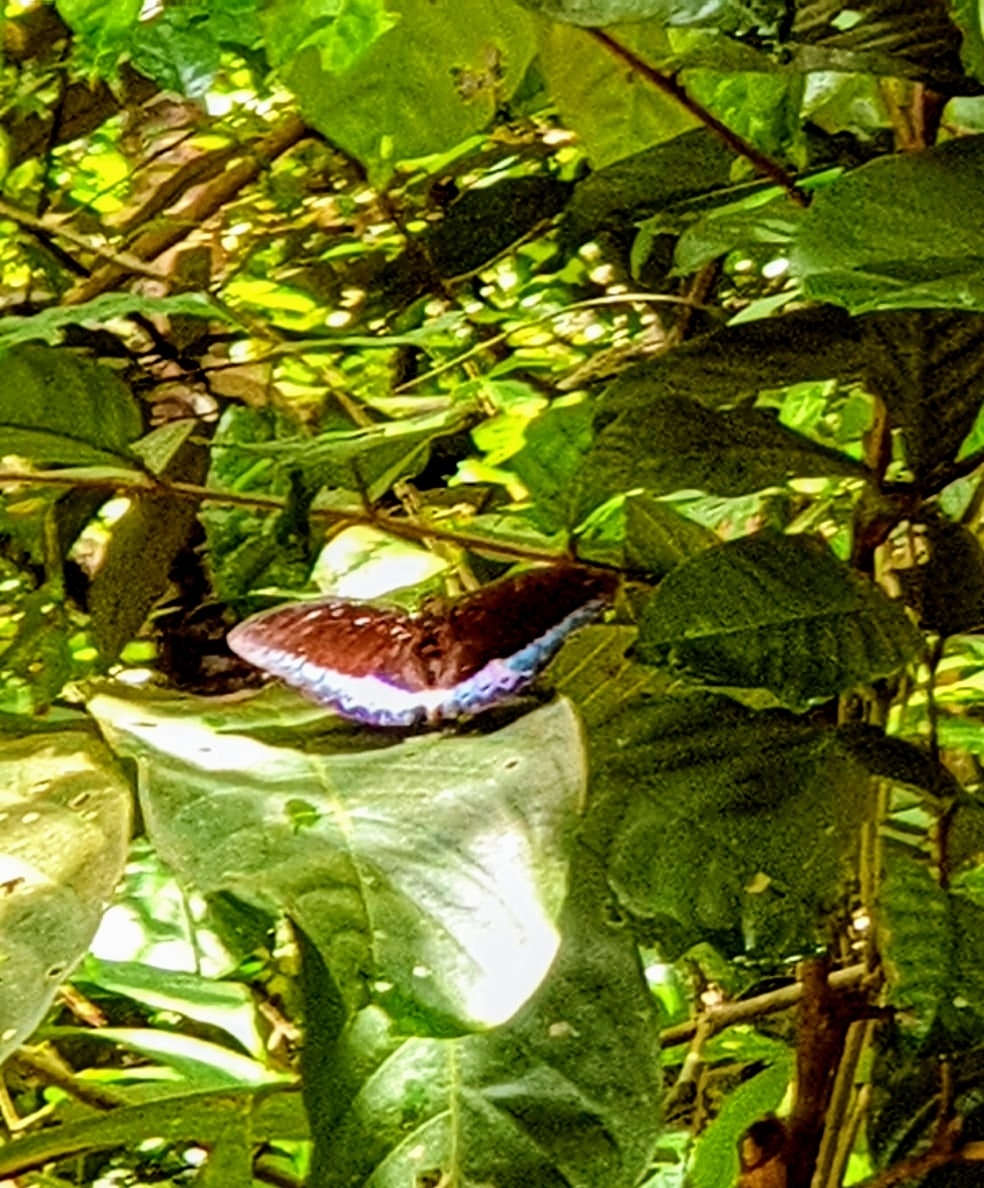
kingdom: Animalia
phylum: Arthropoda
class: Insecta
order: Lepidoptera
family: Nymphalidae
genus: Lexias
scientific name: Lexias pardalis
